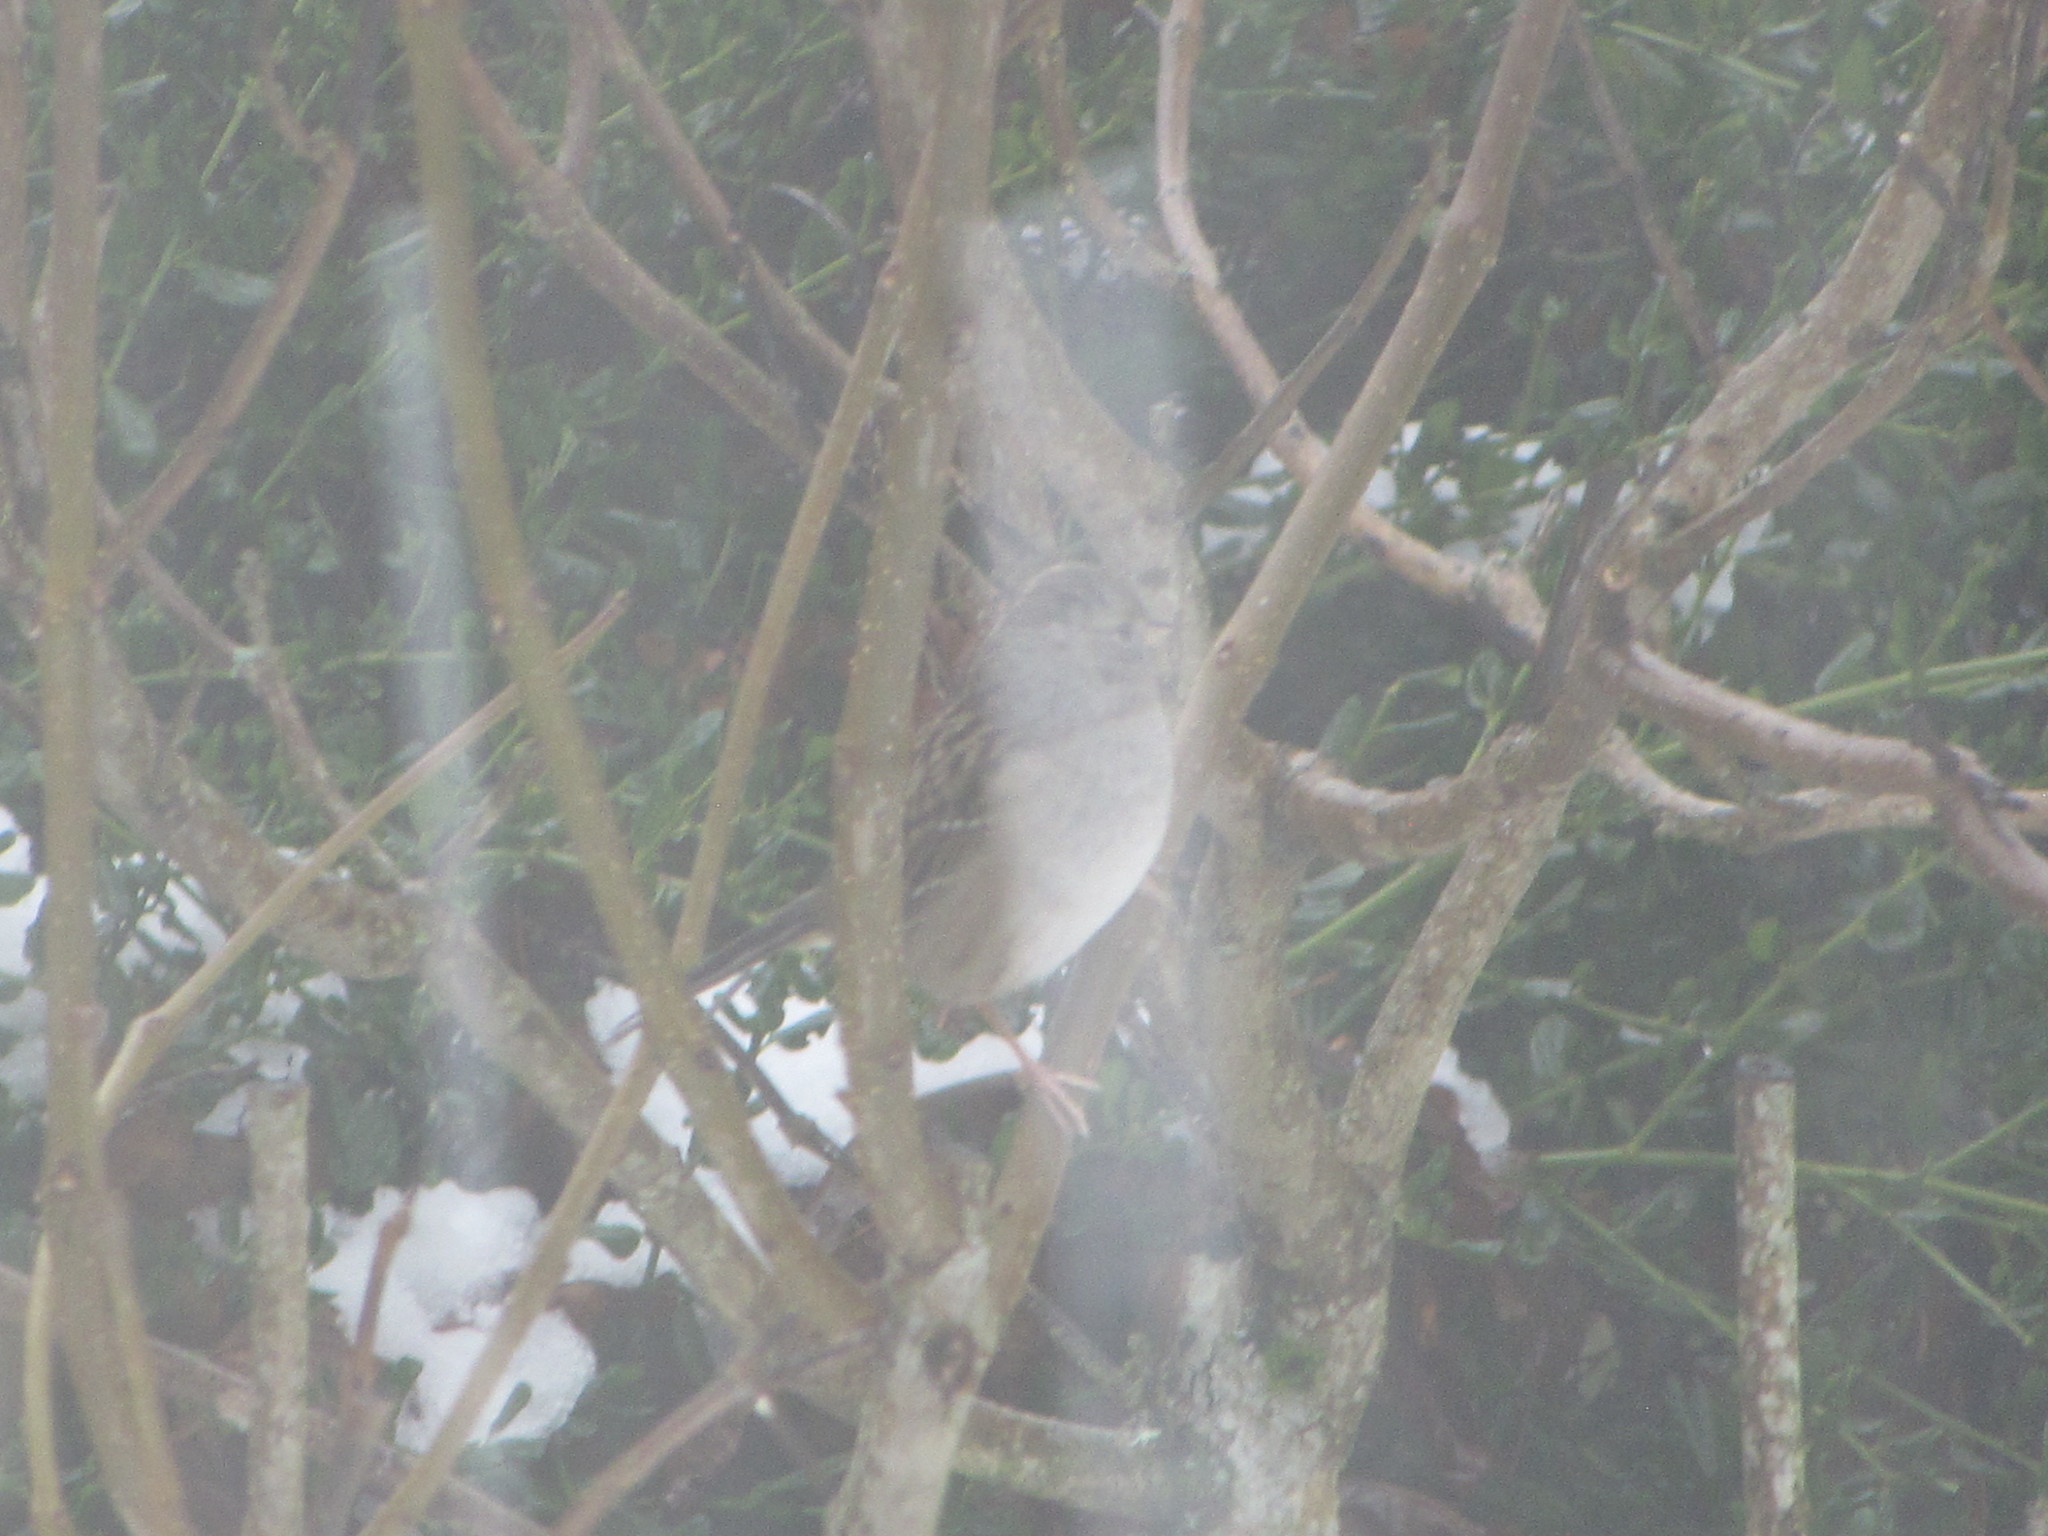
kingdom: Animalia
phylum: Chordata
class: Aves
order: Passeriformes
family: Passerellidae
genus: Zonotrichia
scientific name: Zonotrichia atricapilla
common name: Golden-crowned sparrow
